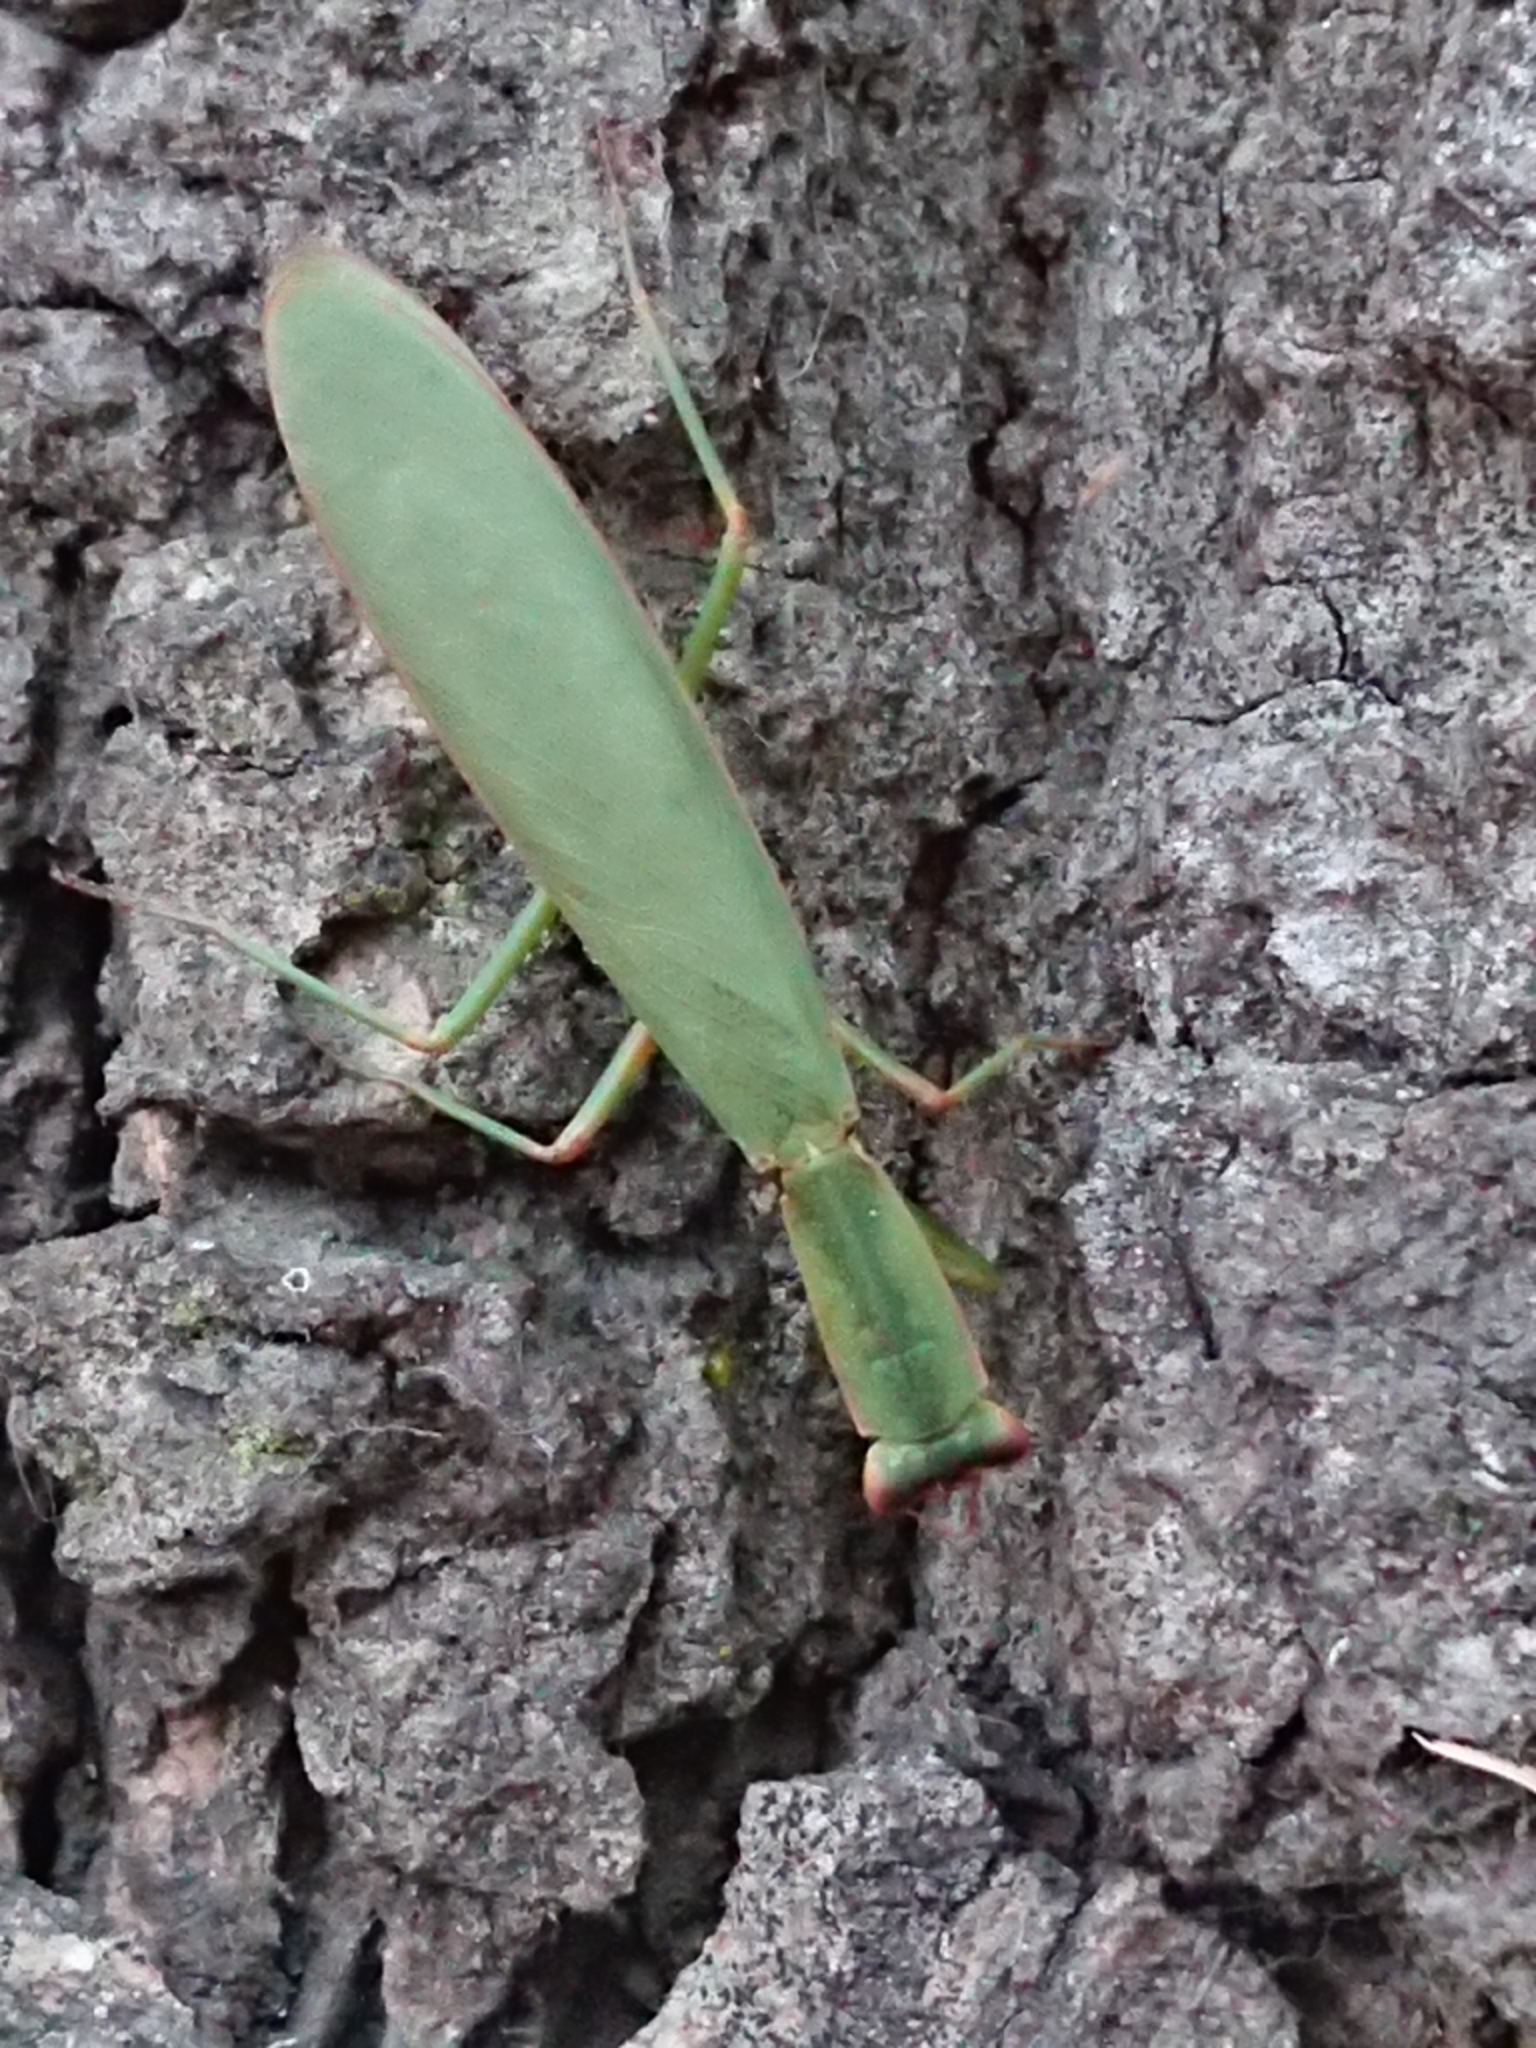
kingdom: Animalia
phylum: Arthropoda
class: Insecta
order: Mantodea
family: Mantidae
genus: Orthodera
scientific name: Orthodera novaezealandiae
